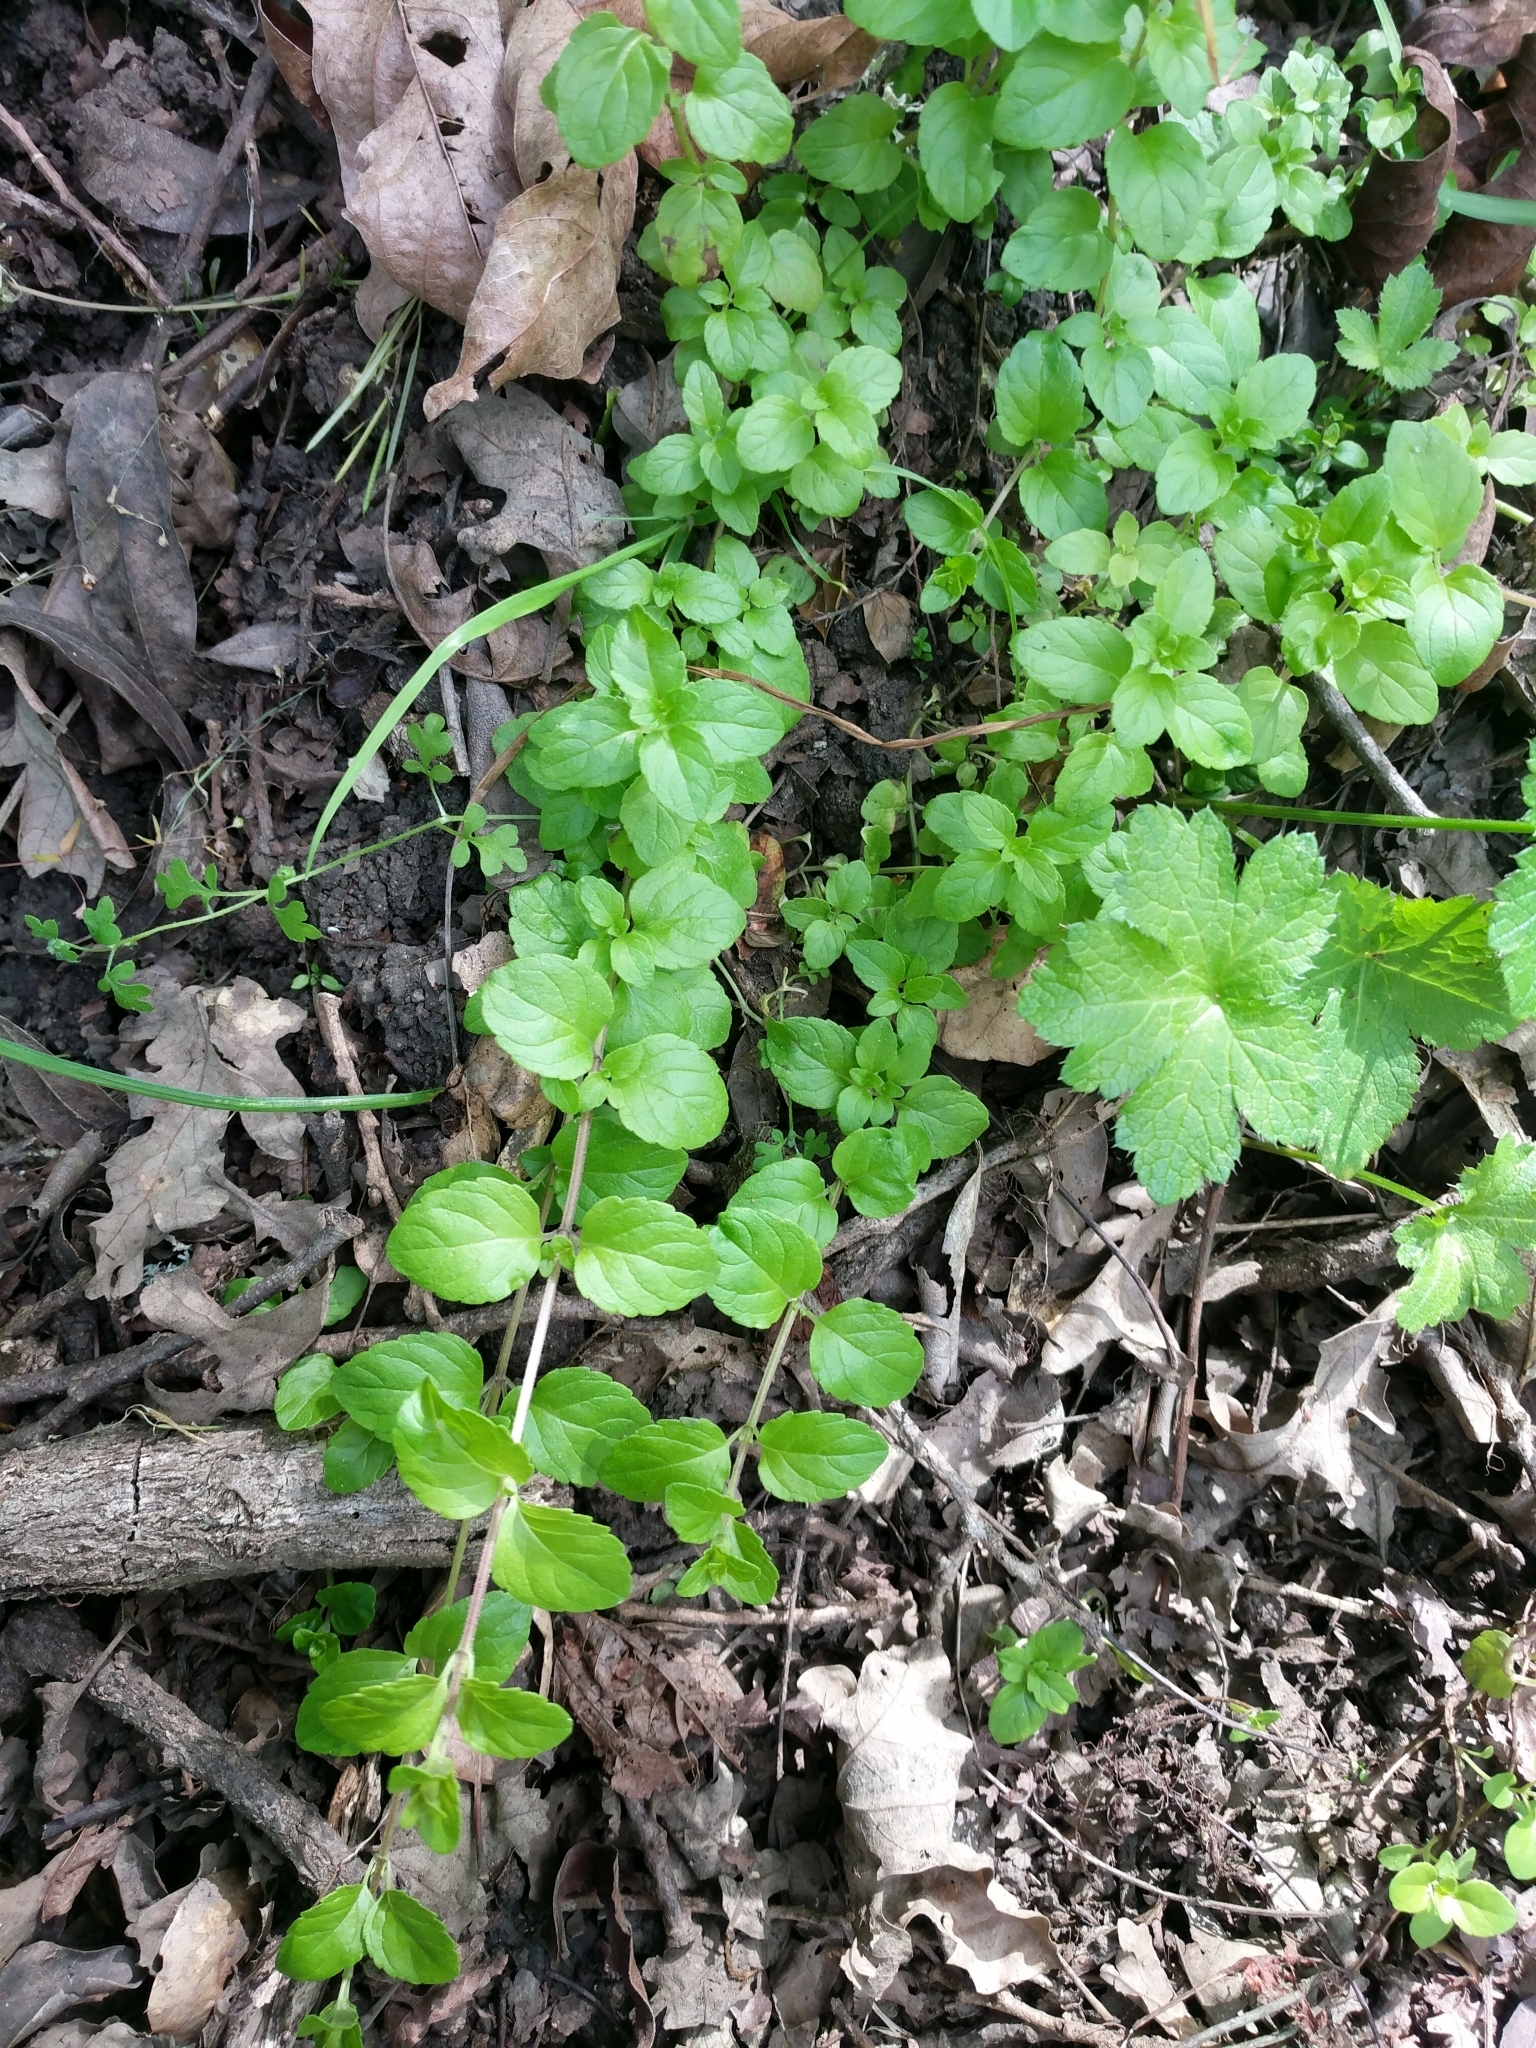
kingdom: Plantae
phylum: Tracheophyta
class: Magnoliopsida
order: Lamiales
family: Lamiaceae
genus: Micromeria
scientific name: Micromeria douglasii
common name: Yerba buena
